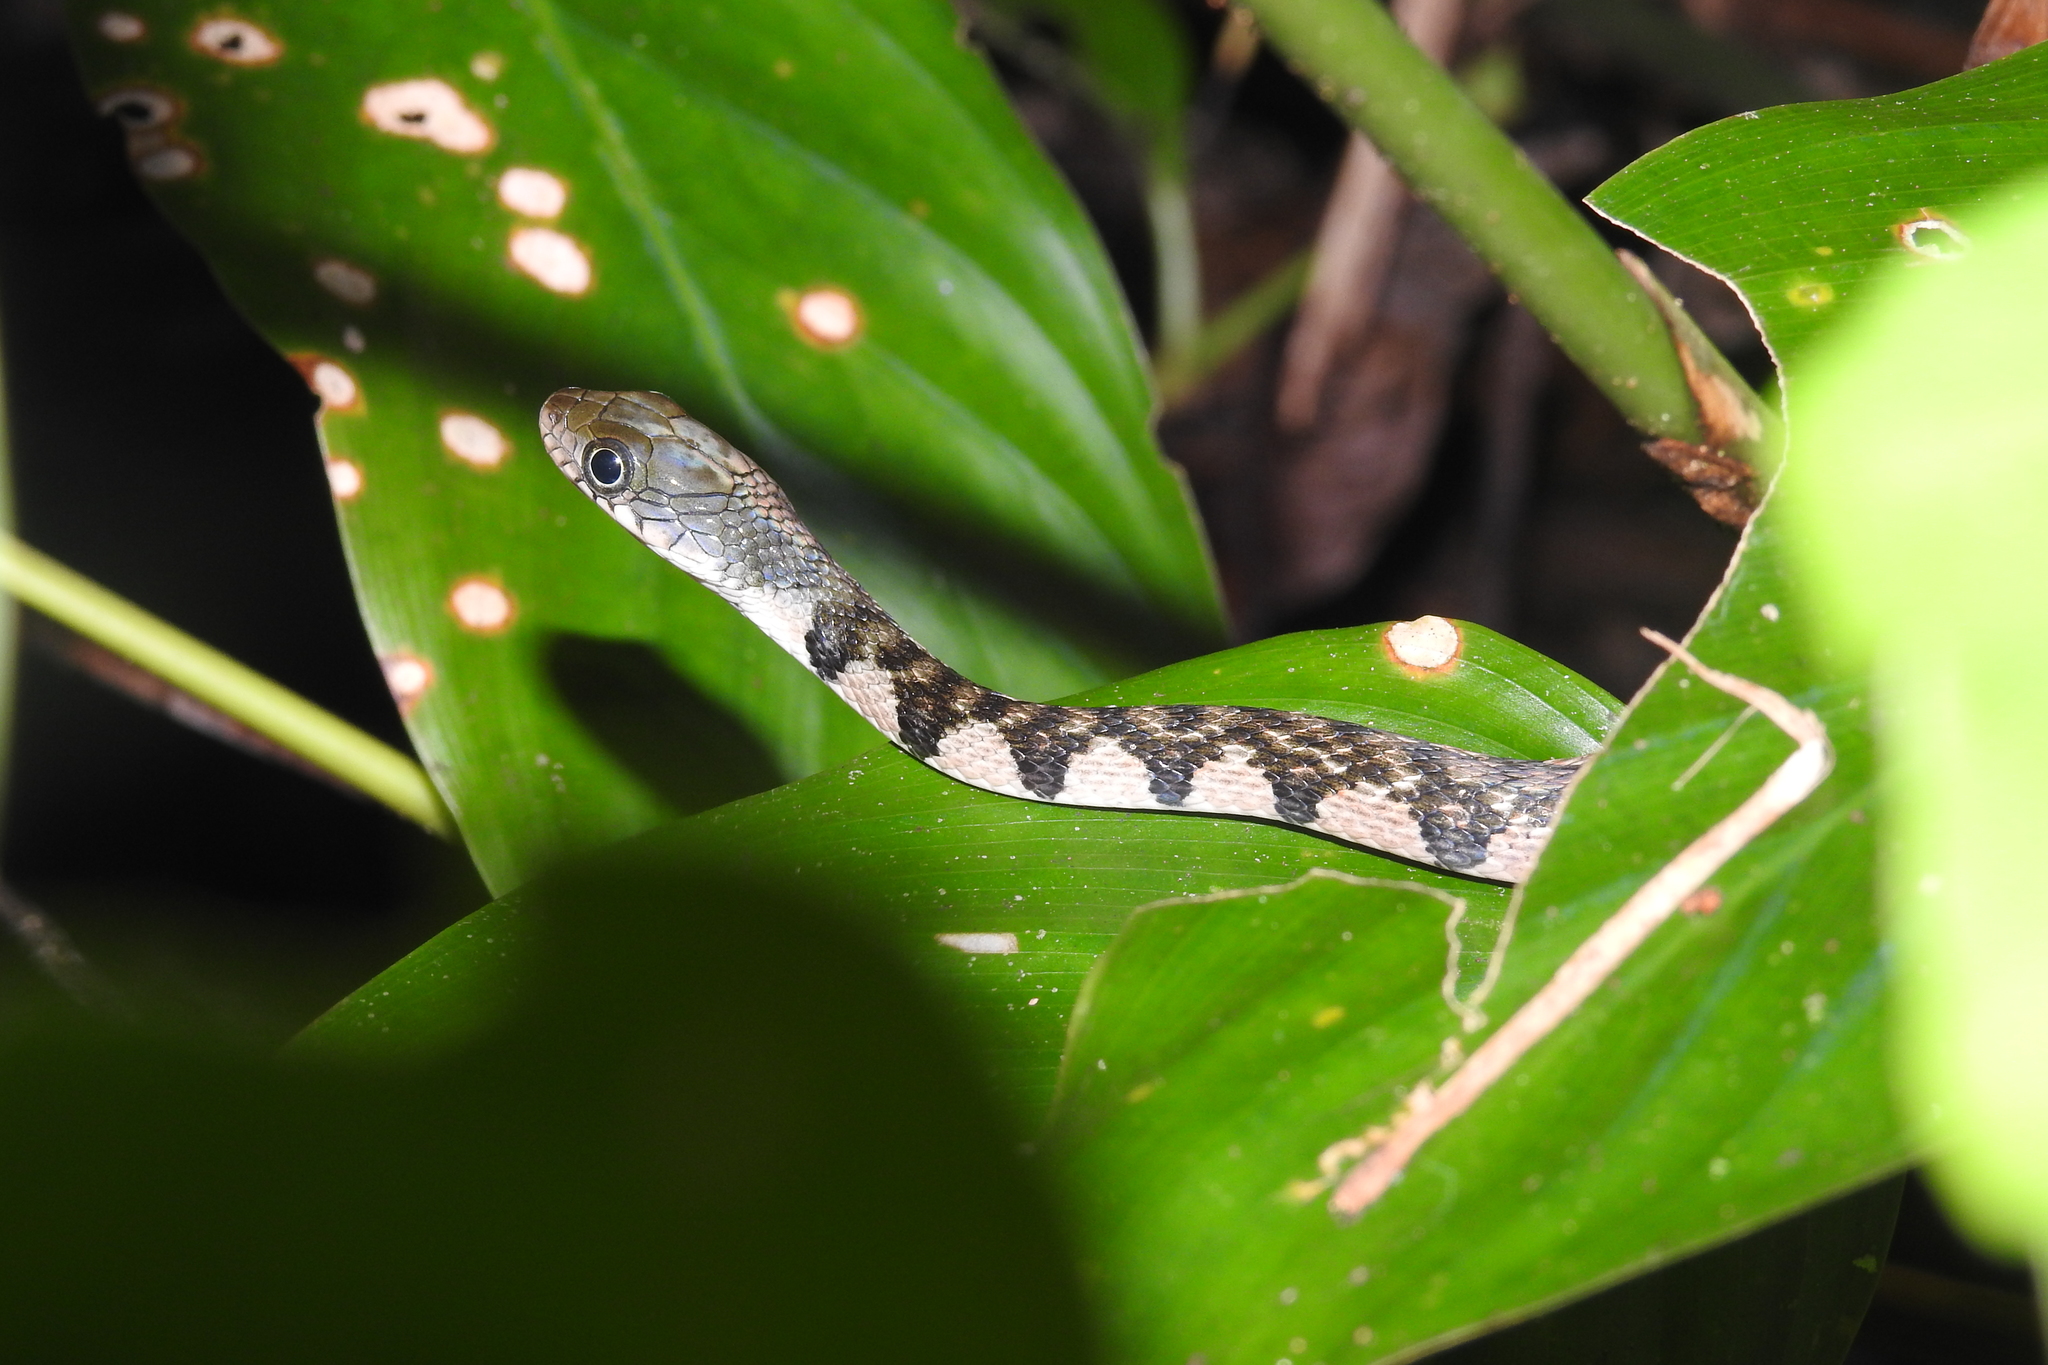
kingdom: Animalia
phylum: Chordata
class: Squamata
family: Colubridae
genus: Xenochrophis
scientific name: Xenochrophis trianguligerus
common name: Triangle keelback
